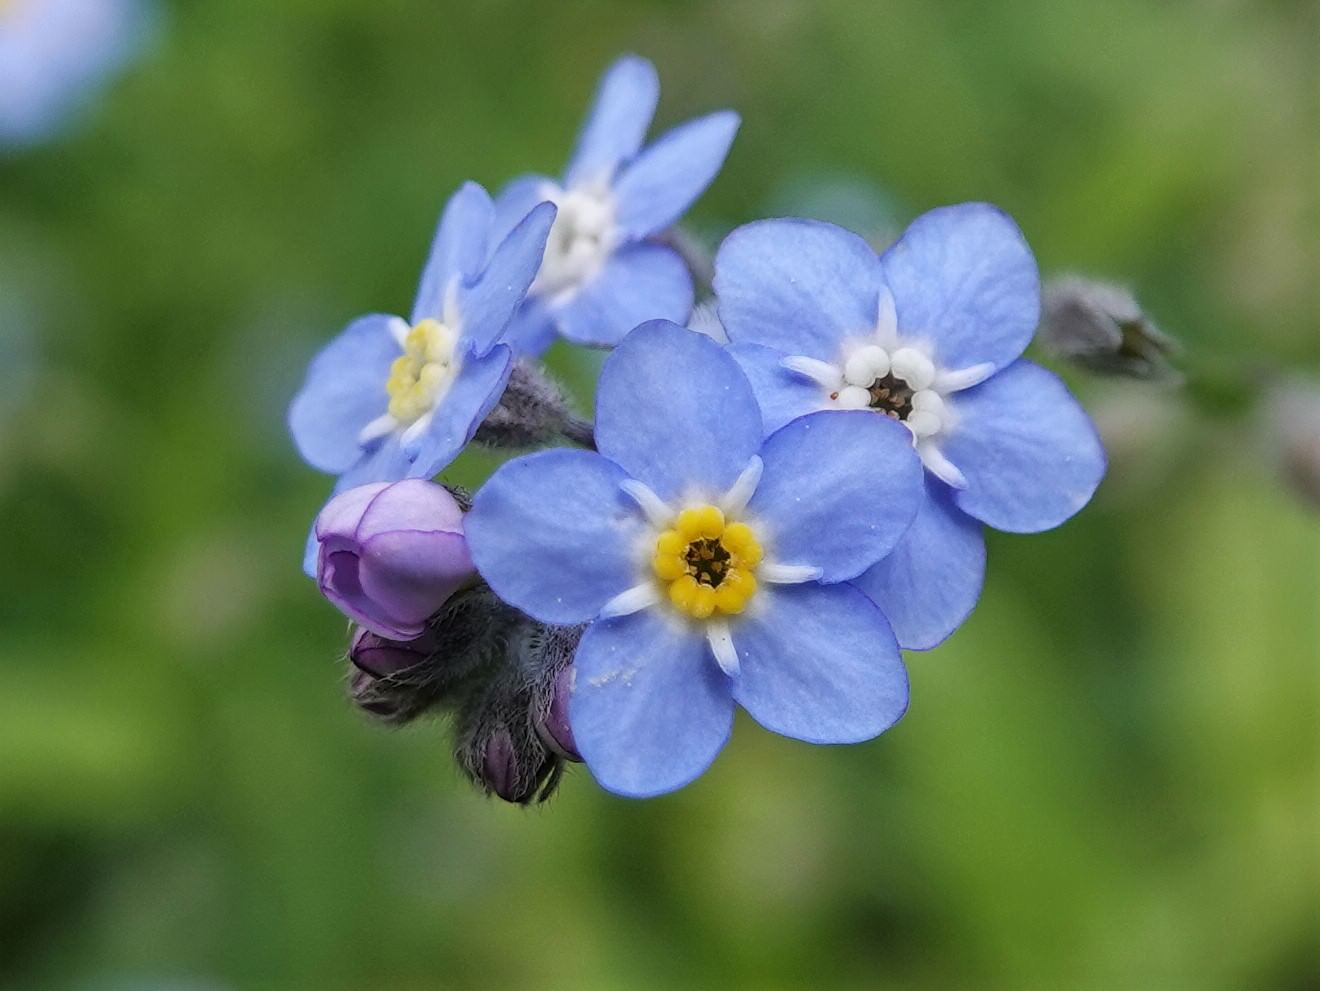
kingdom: Plantae
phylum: Tracheophyta
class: Magnoliopsida
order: Boraginales
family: Boraginaceae
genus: Myosotis
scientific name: Myosotis sylvatica
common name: Wood forget-me-not
